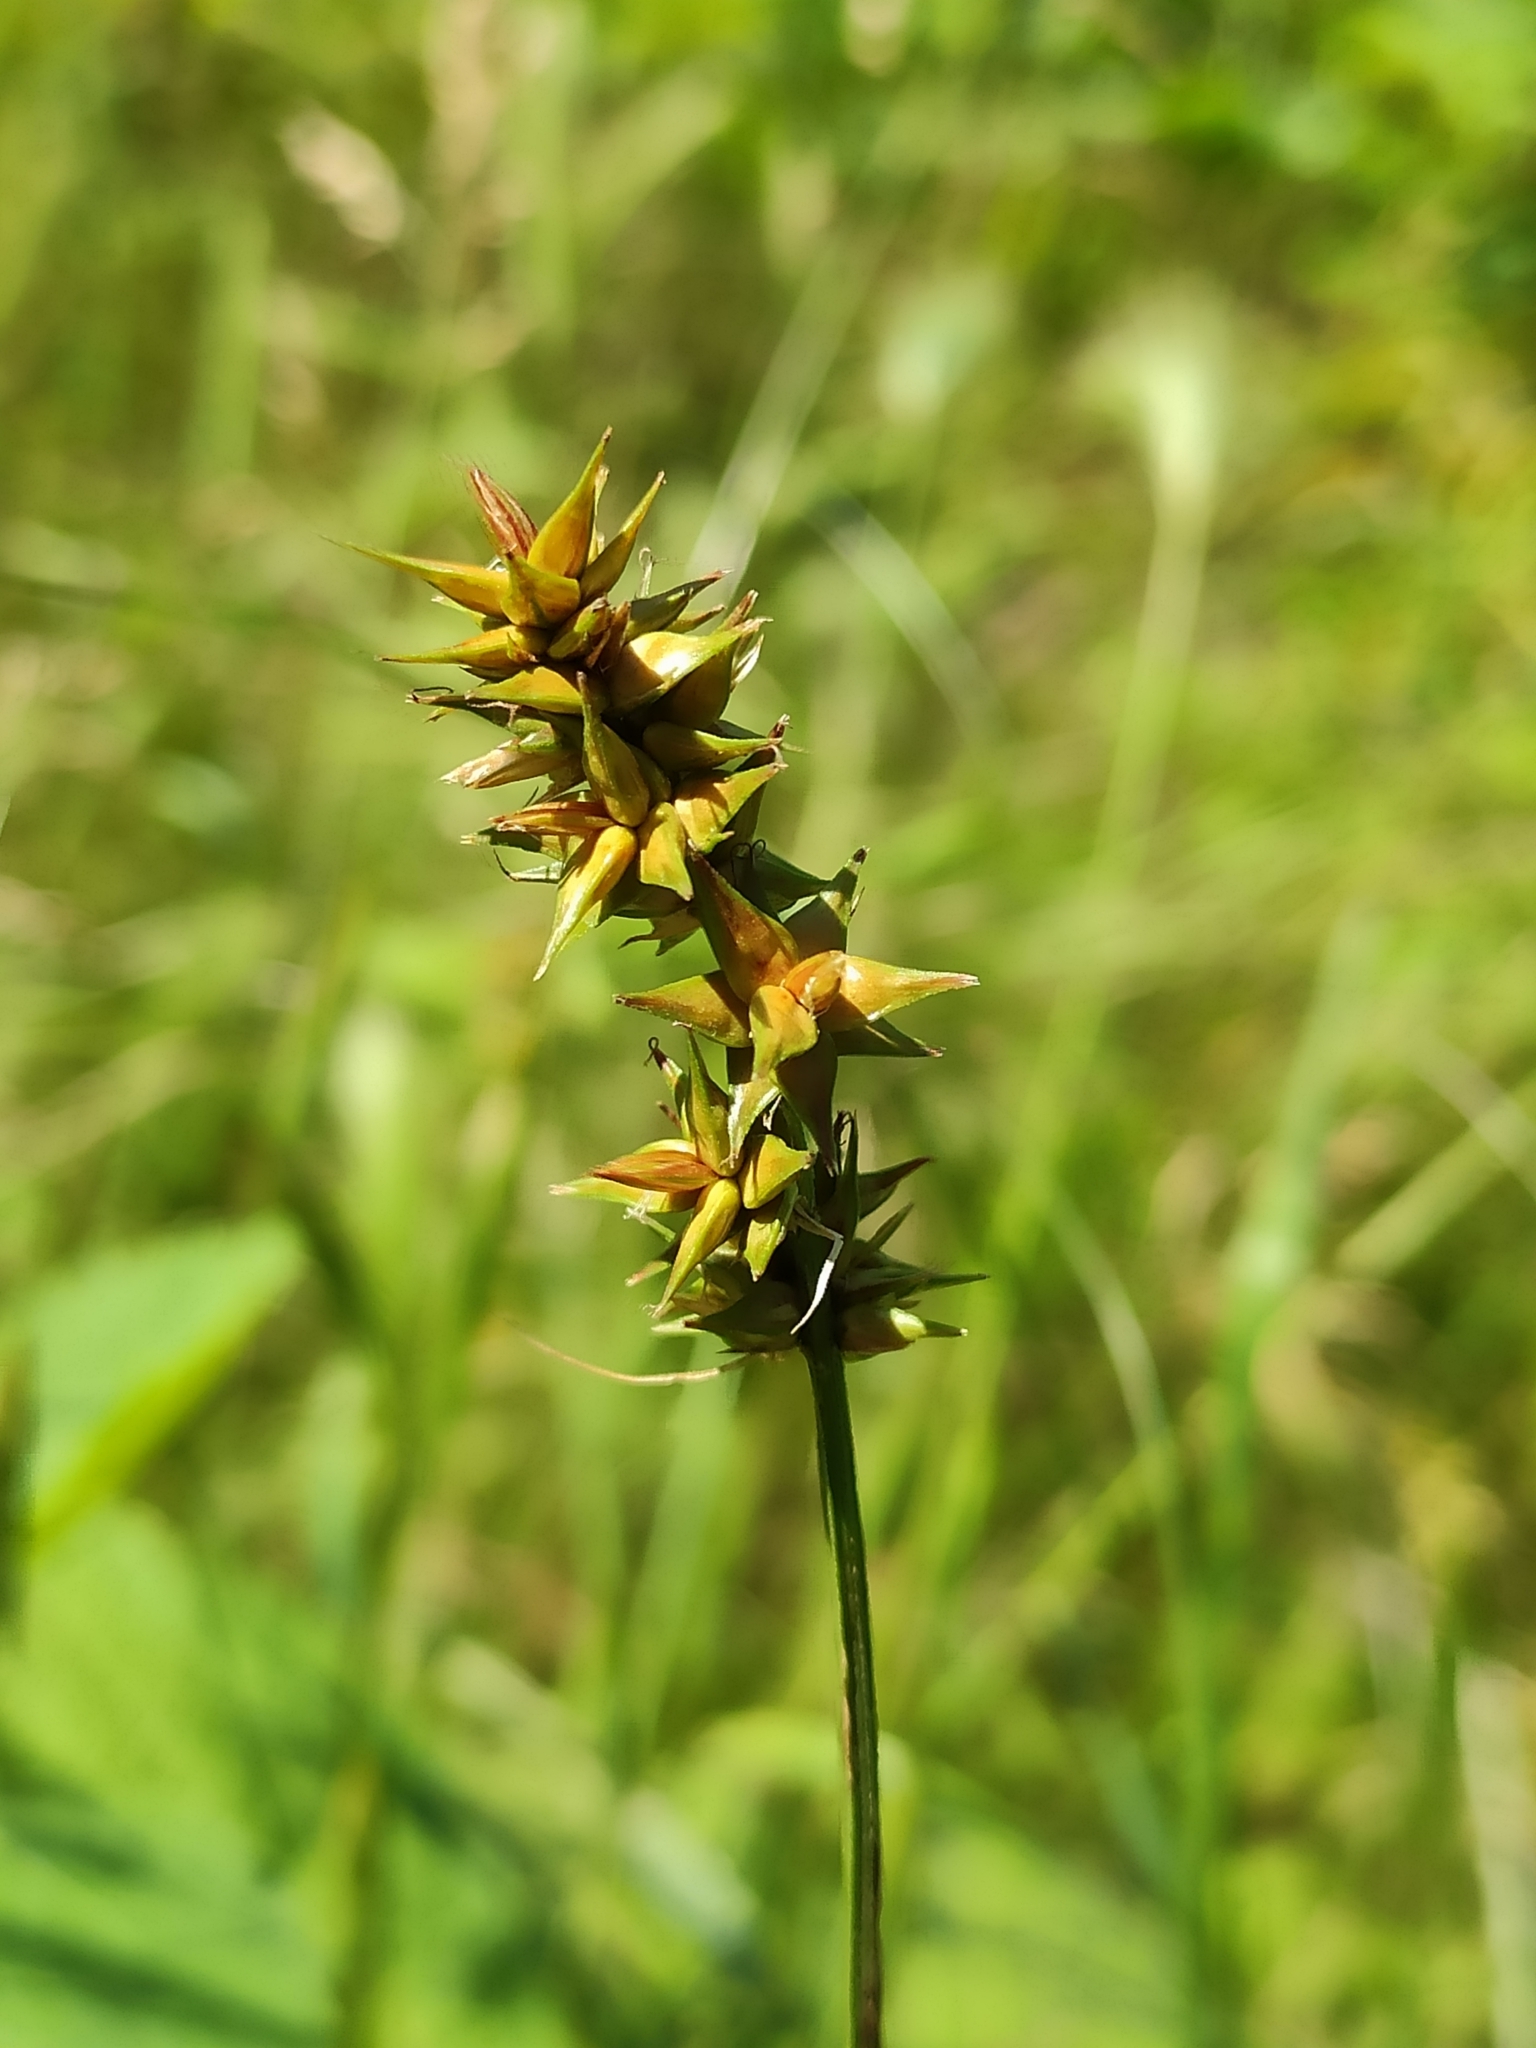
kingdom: Plantae
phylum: Tracheophyta
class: Liliopsida
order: Poales
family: Cyperaceae
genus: Carex
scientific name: Carex spicata
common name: Spiked sedge
